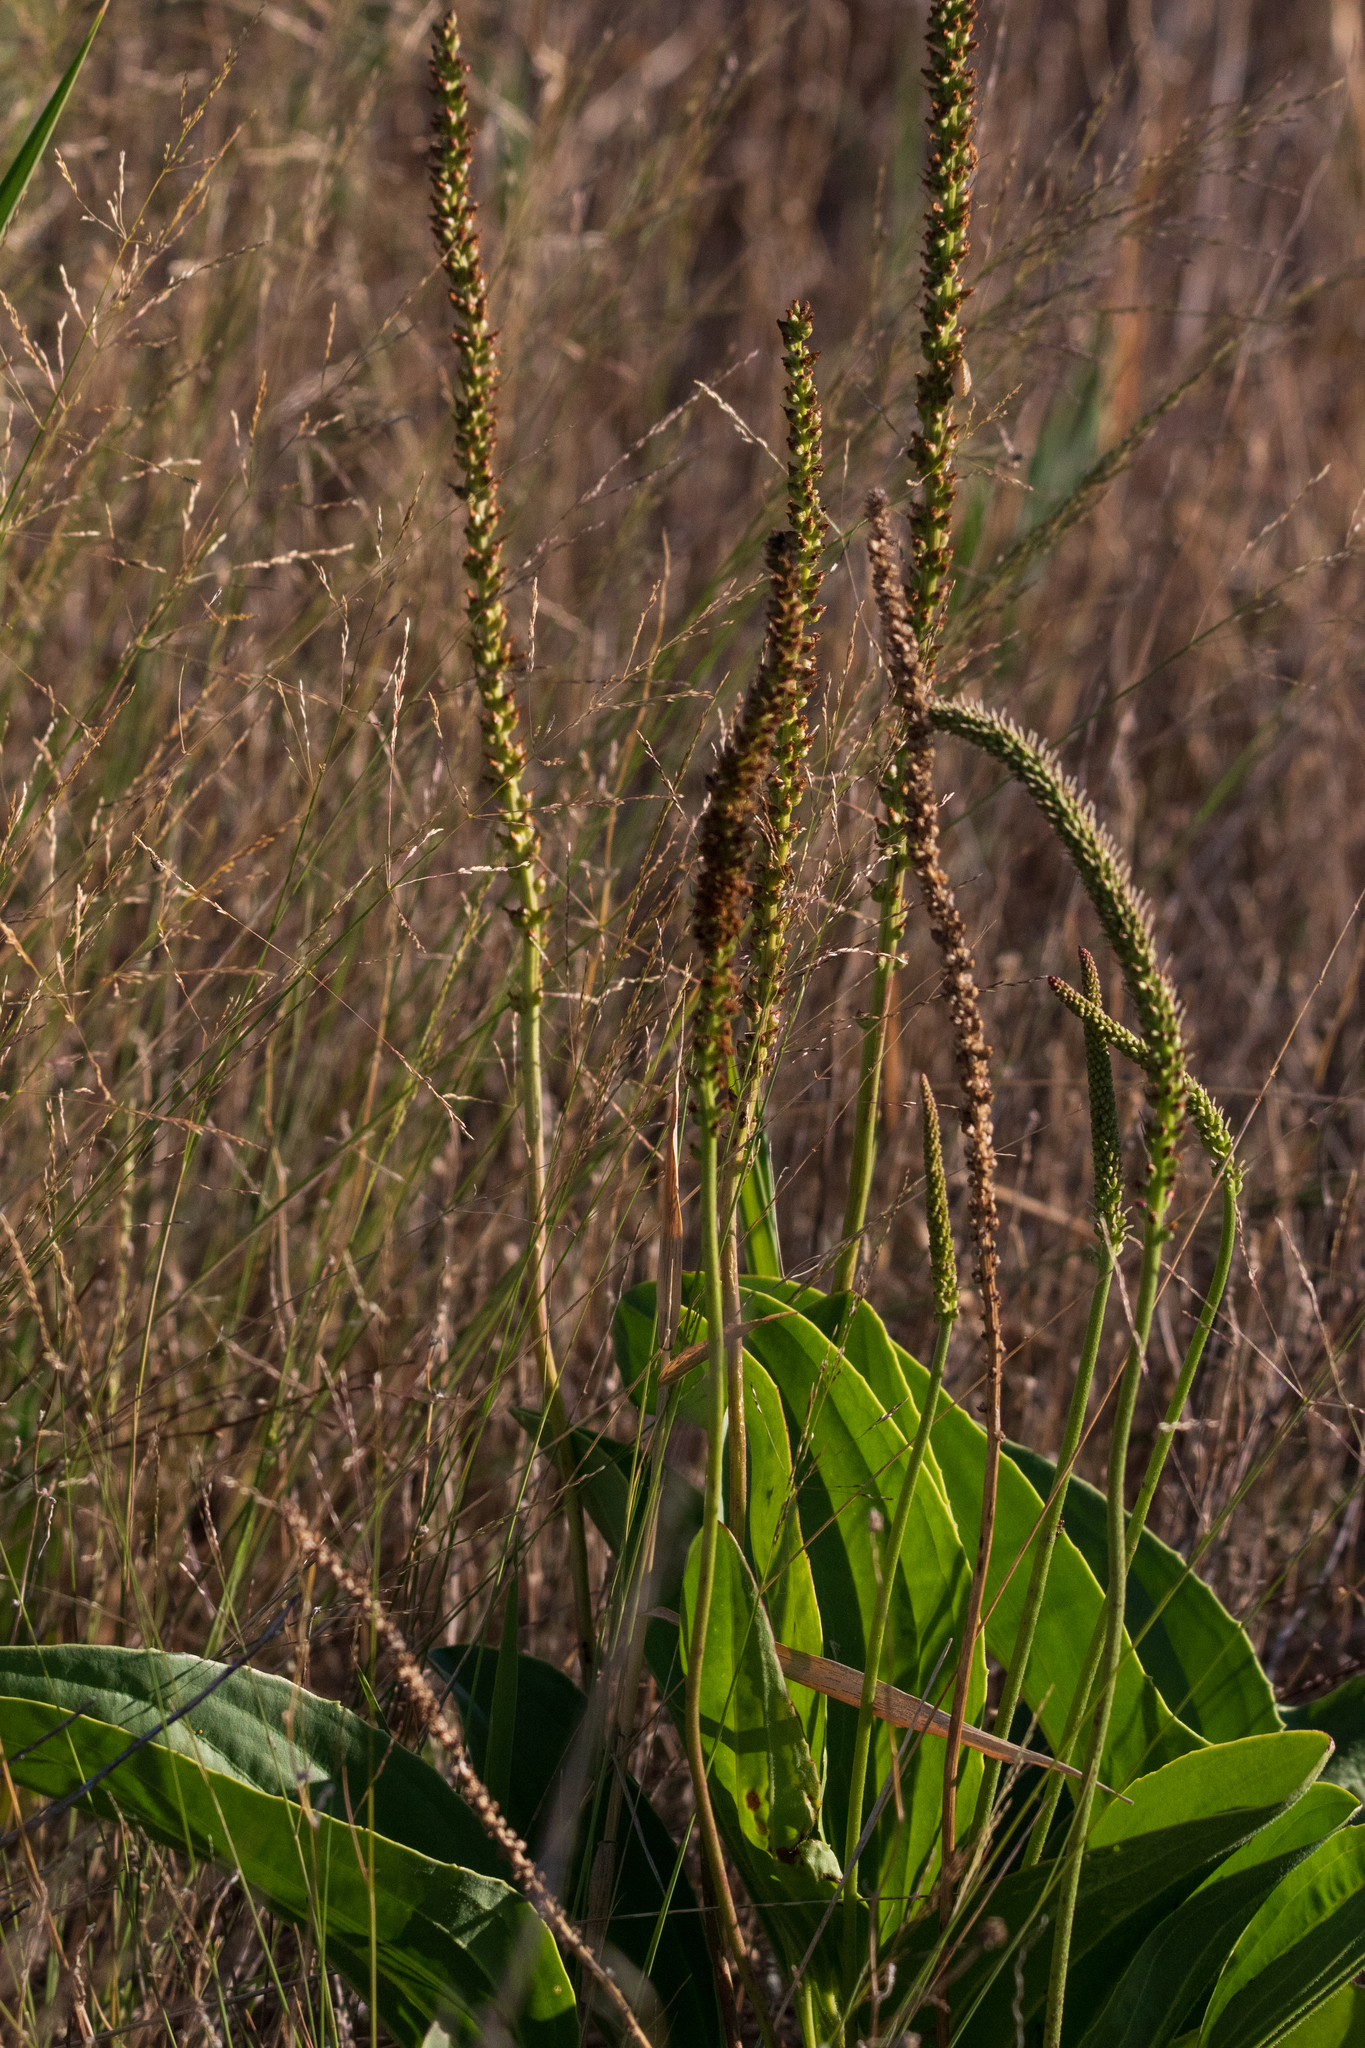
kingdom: Plantae
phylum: Tracheophyta
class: Magnoliopsida
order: Lamiales
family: Plantaginaceae
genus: Plantago
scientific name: Plantago cornuti
